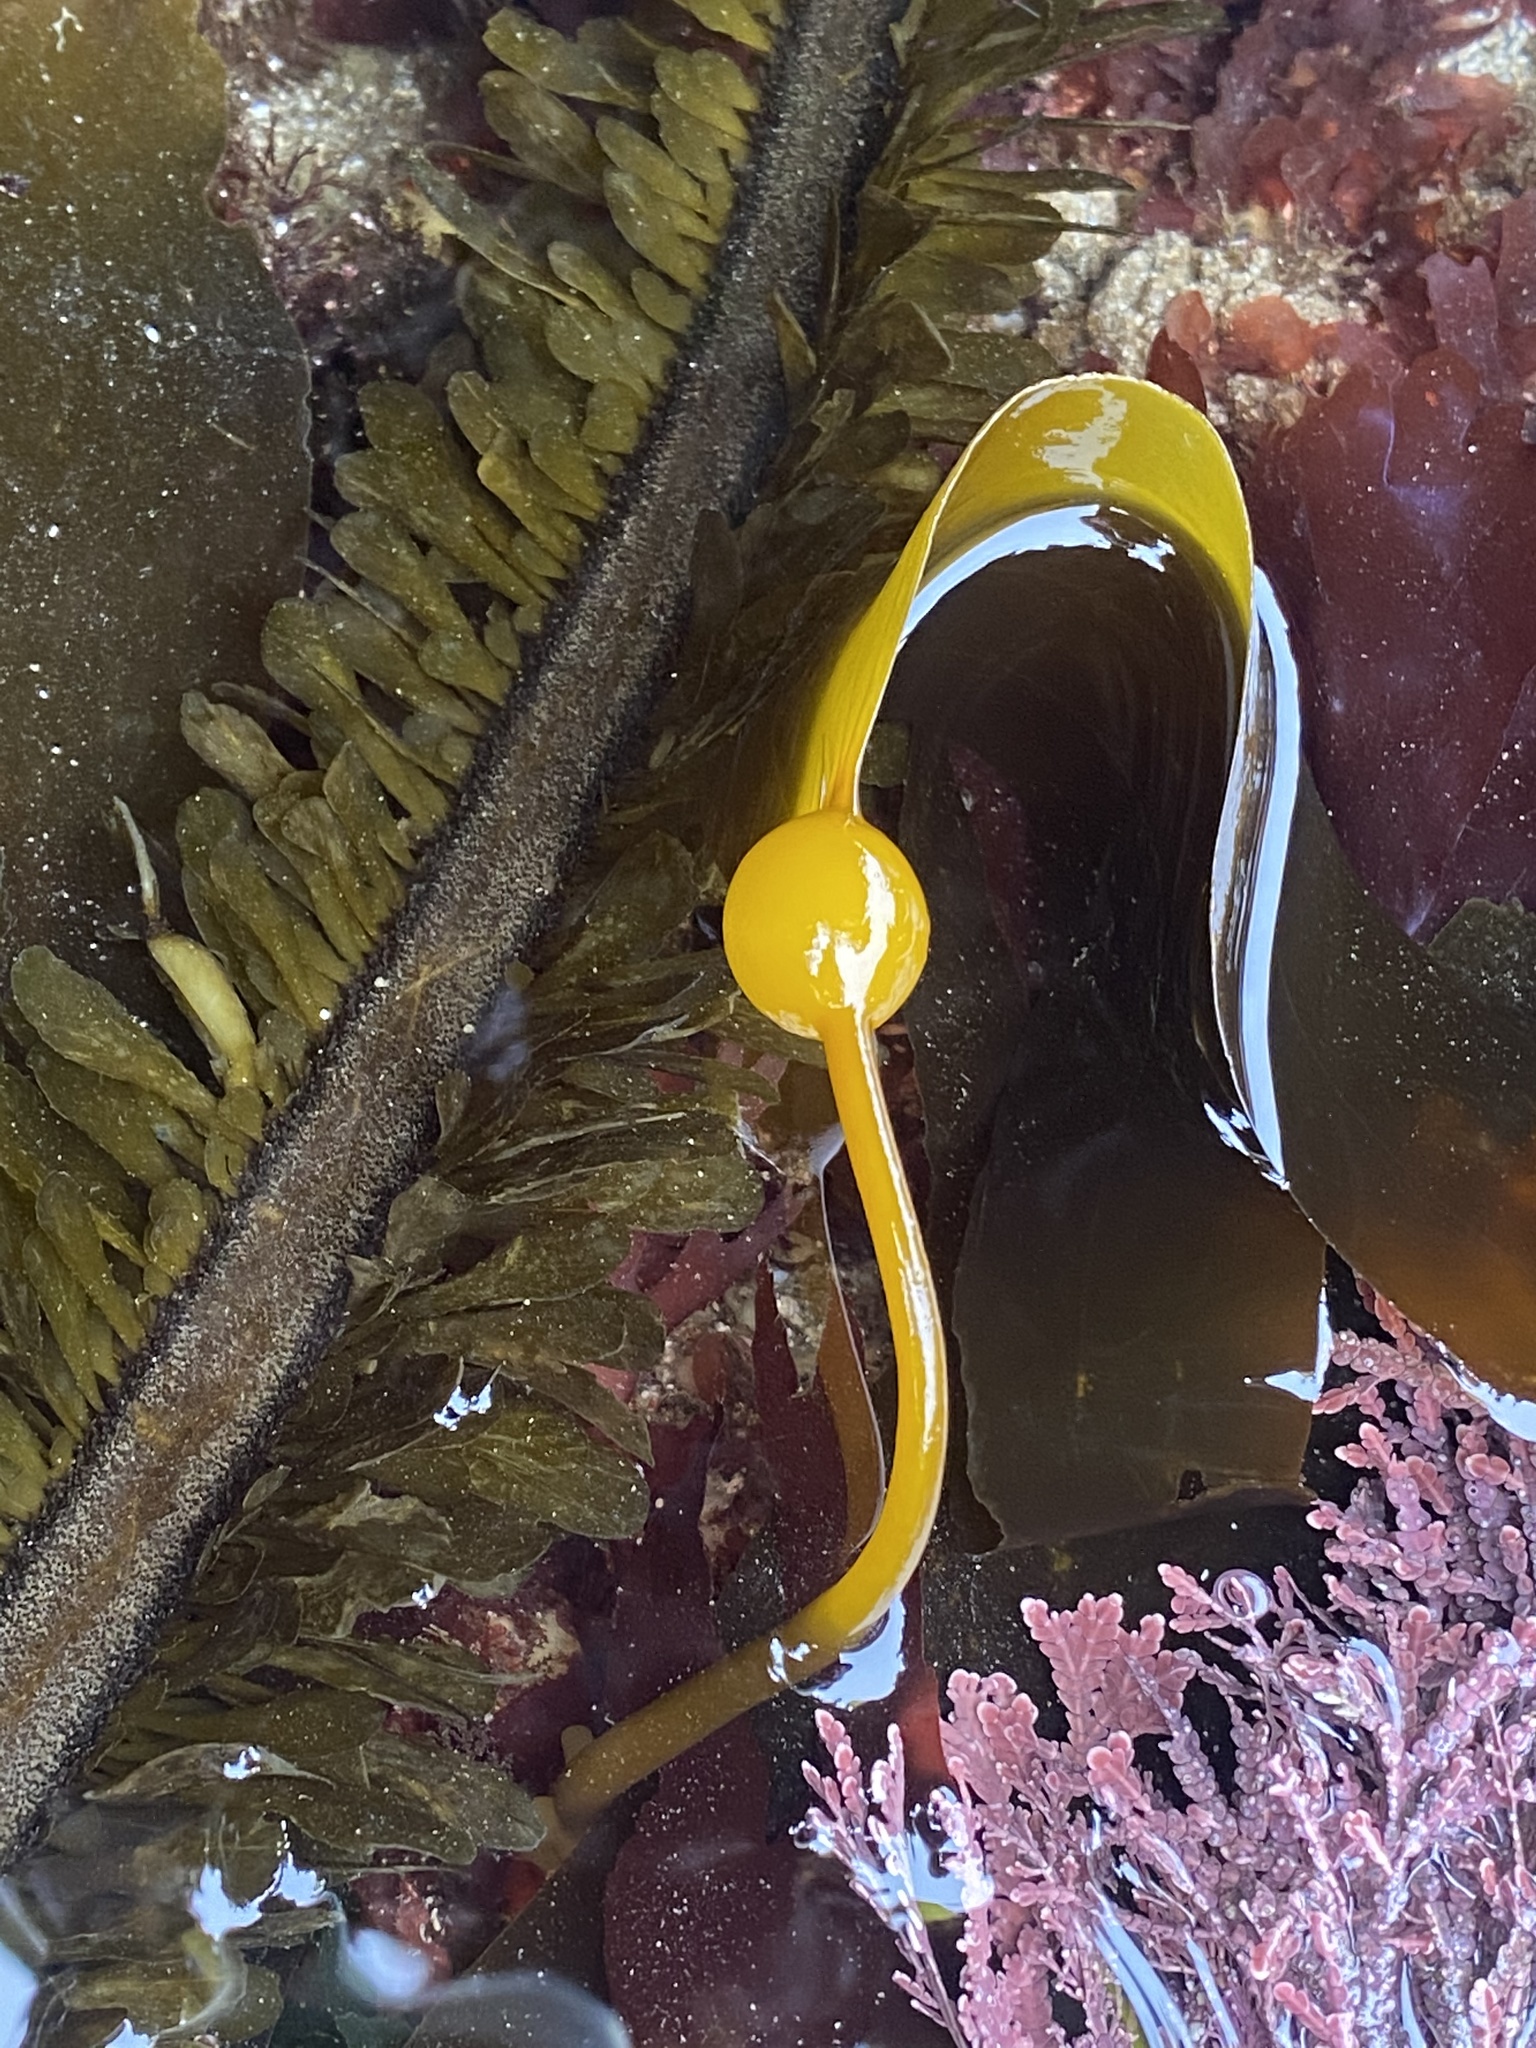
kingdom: Chromista
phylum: Ochrophyta
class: Phaeophyceae
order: Laminariales
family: Laminariaceae
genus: Nereocystis
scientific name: Nereocystis luetkeana
